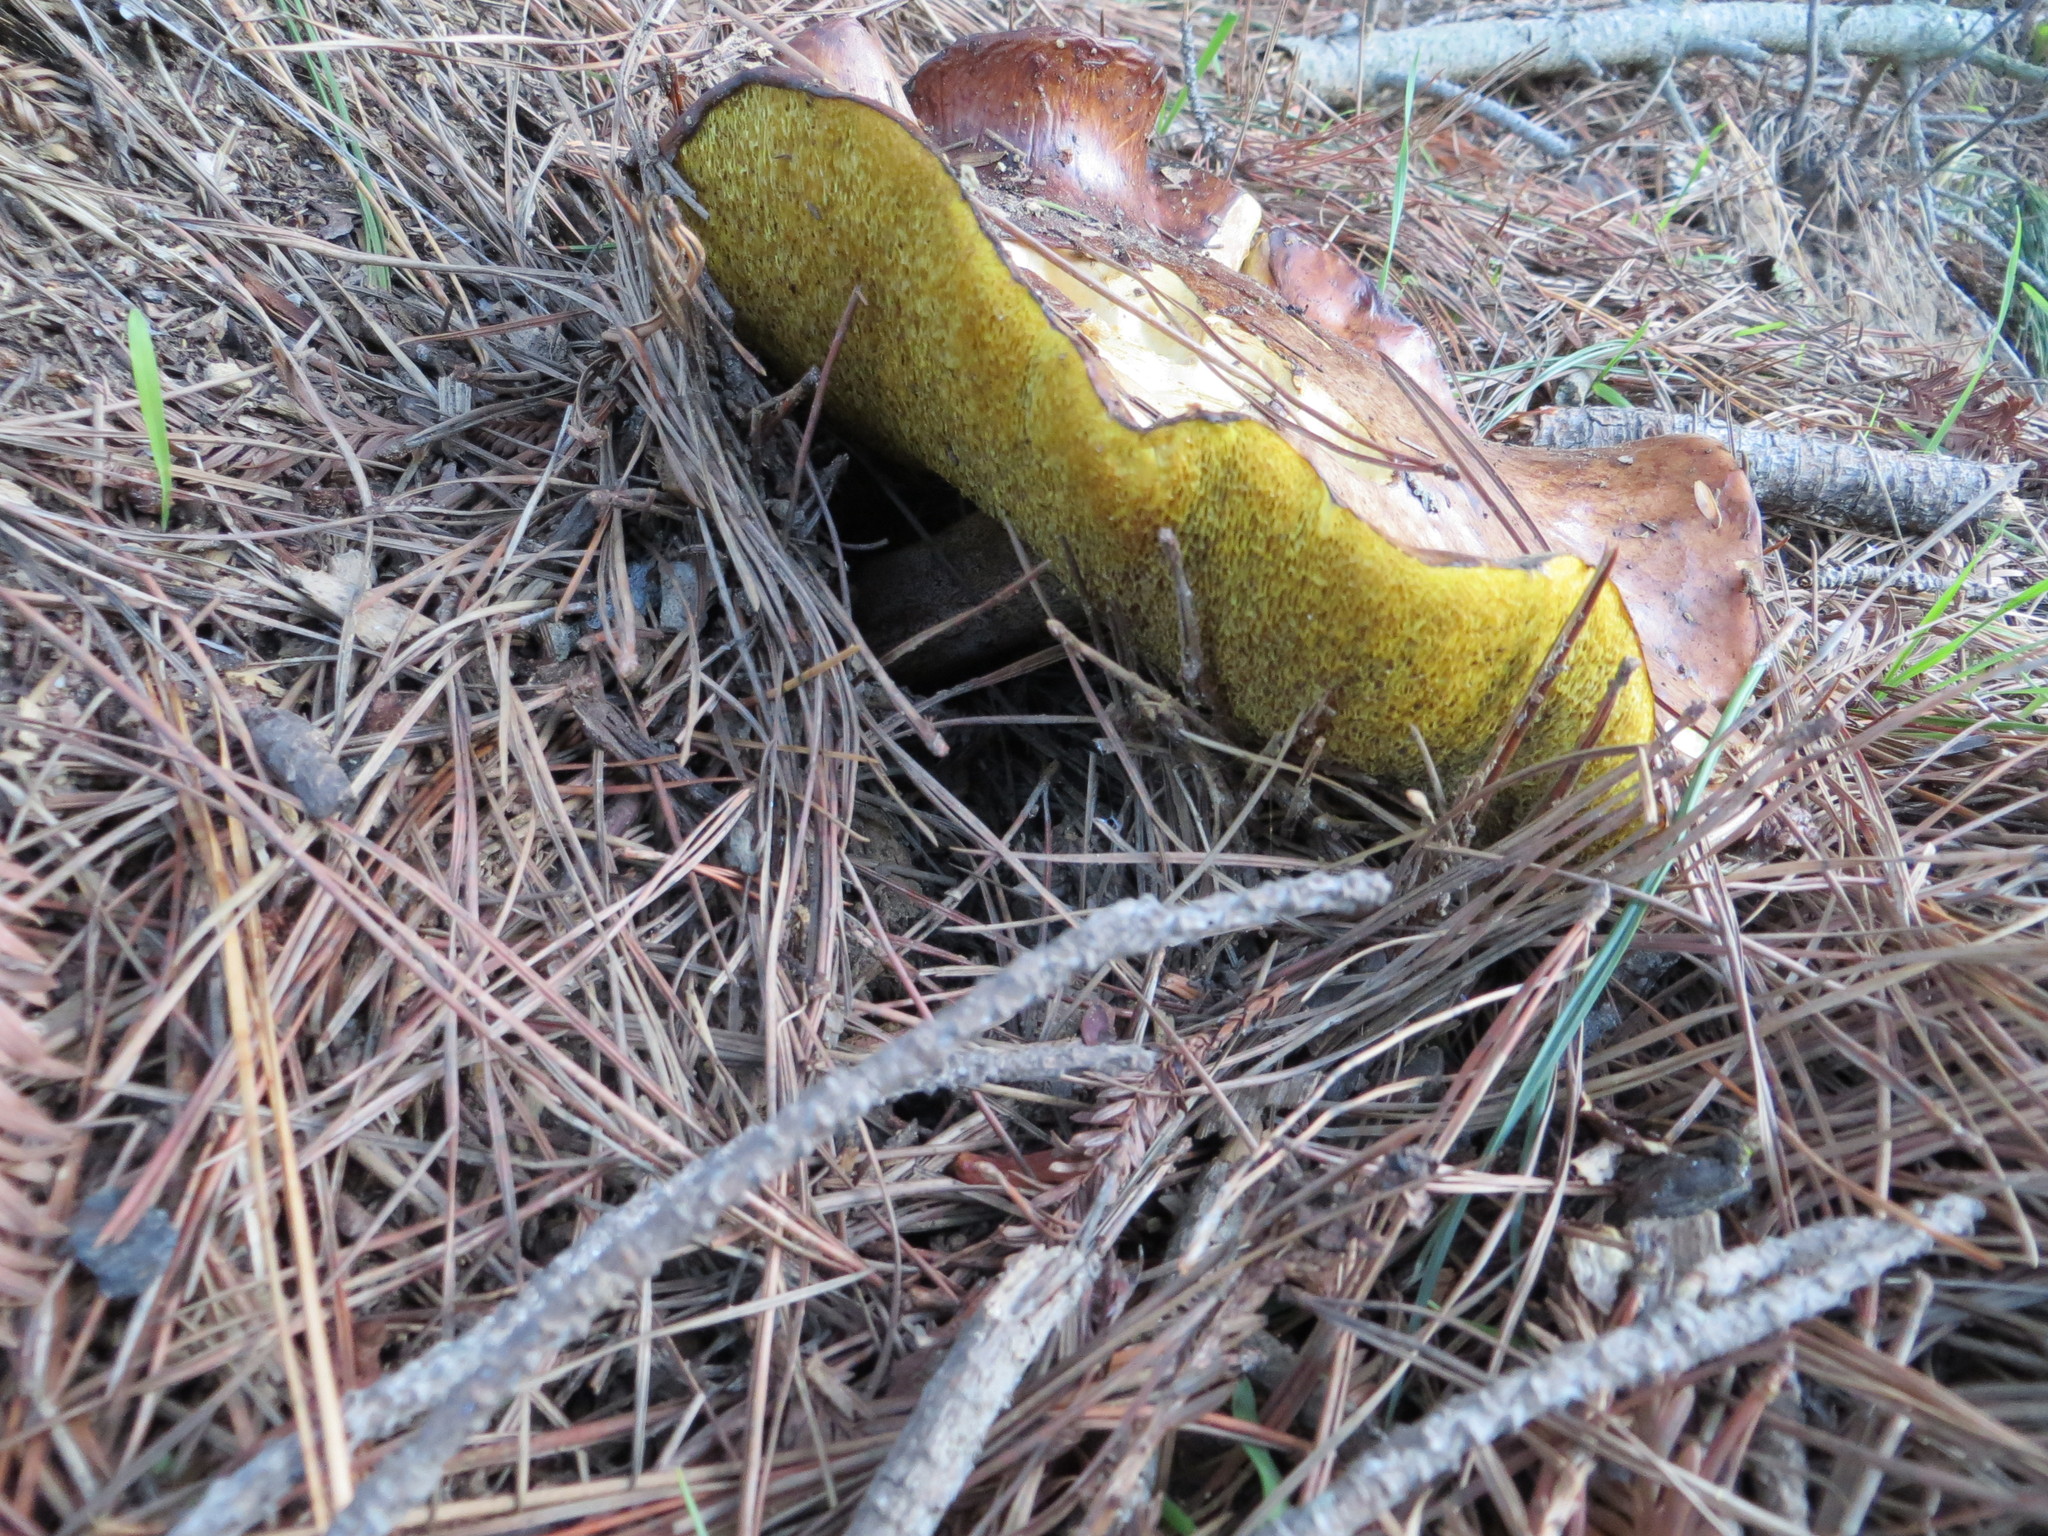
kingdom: Fungi
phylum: Basidiomycota
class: Agaricomycetes
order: Boletales
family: Suillaceae
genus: Suillus
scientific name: Suillus pungens
